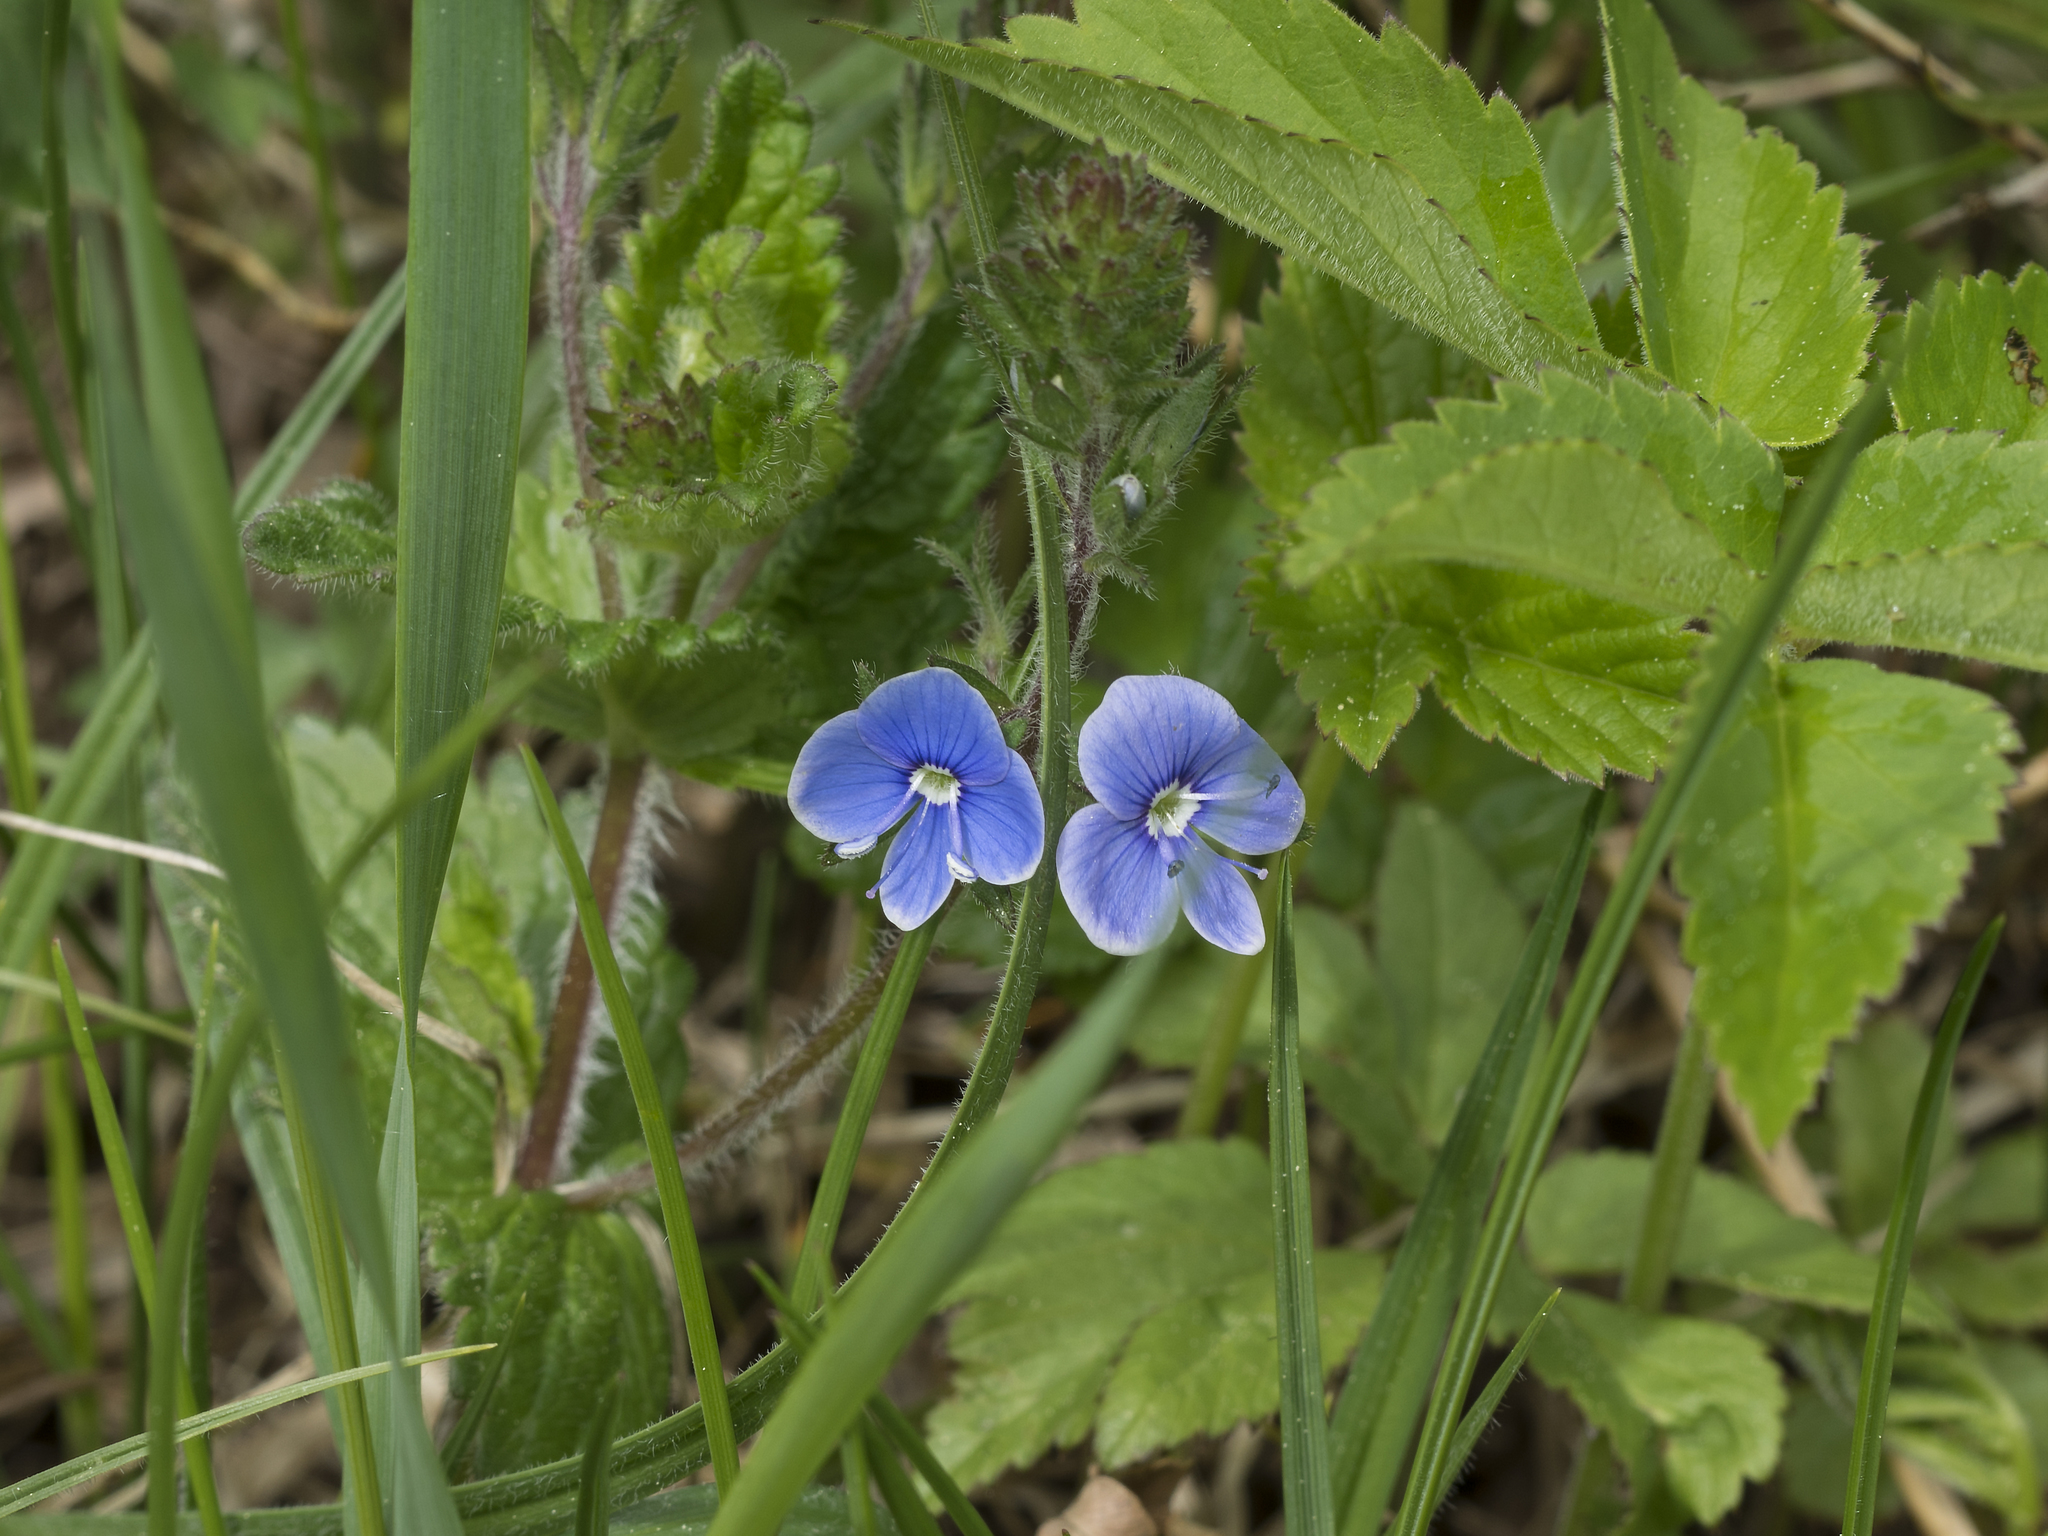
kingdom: Plantae
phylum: Tracheophyta
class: Magnoliopsida
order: Lamiales
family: Plantaginaceae
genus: Veronica
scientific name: Veronica chamaedrys
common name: Germander speedwell
